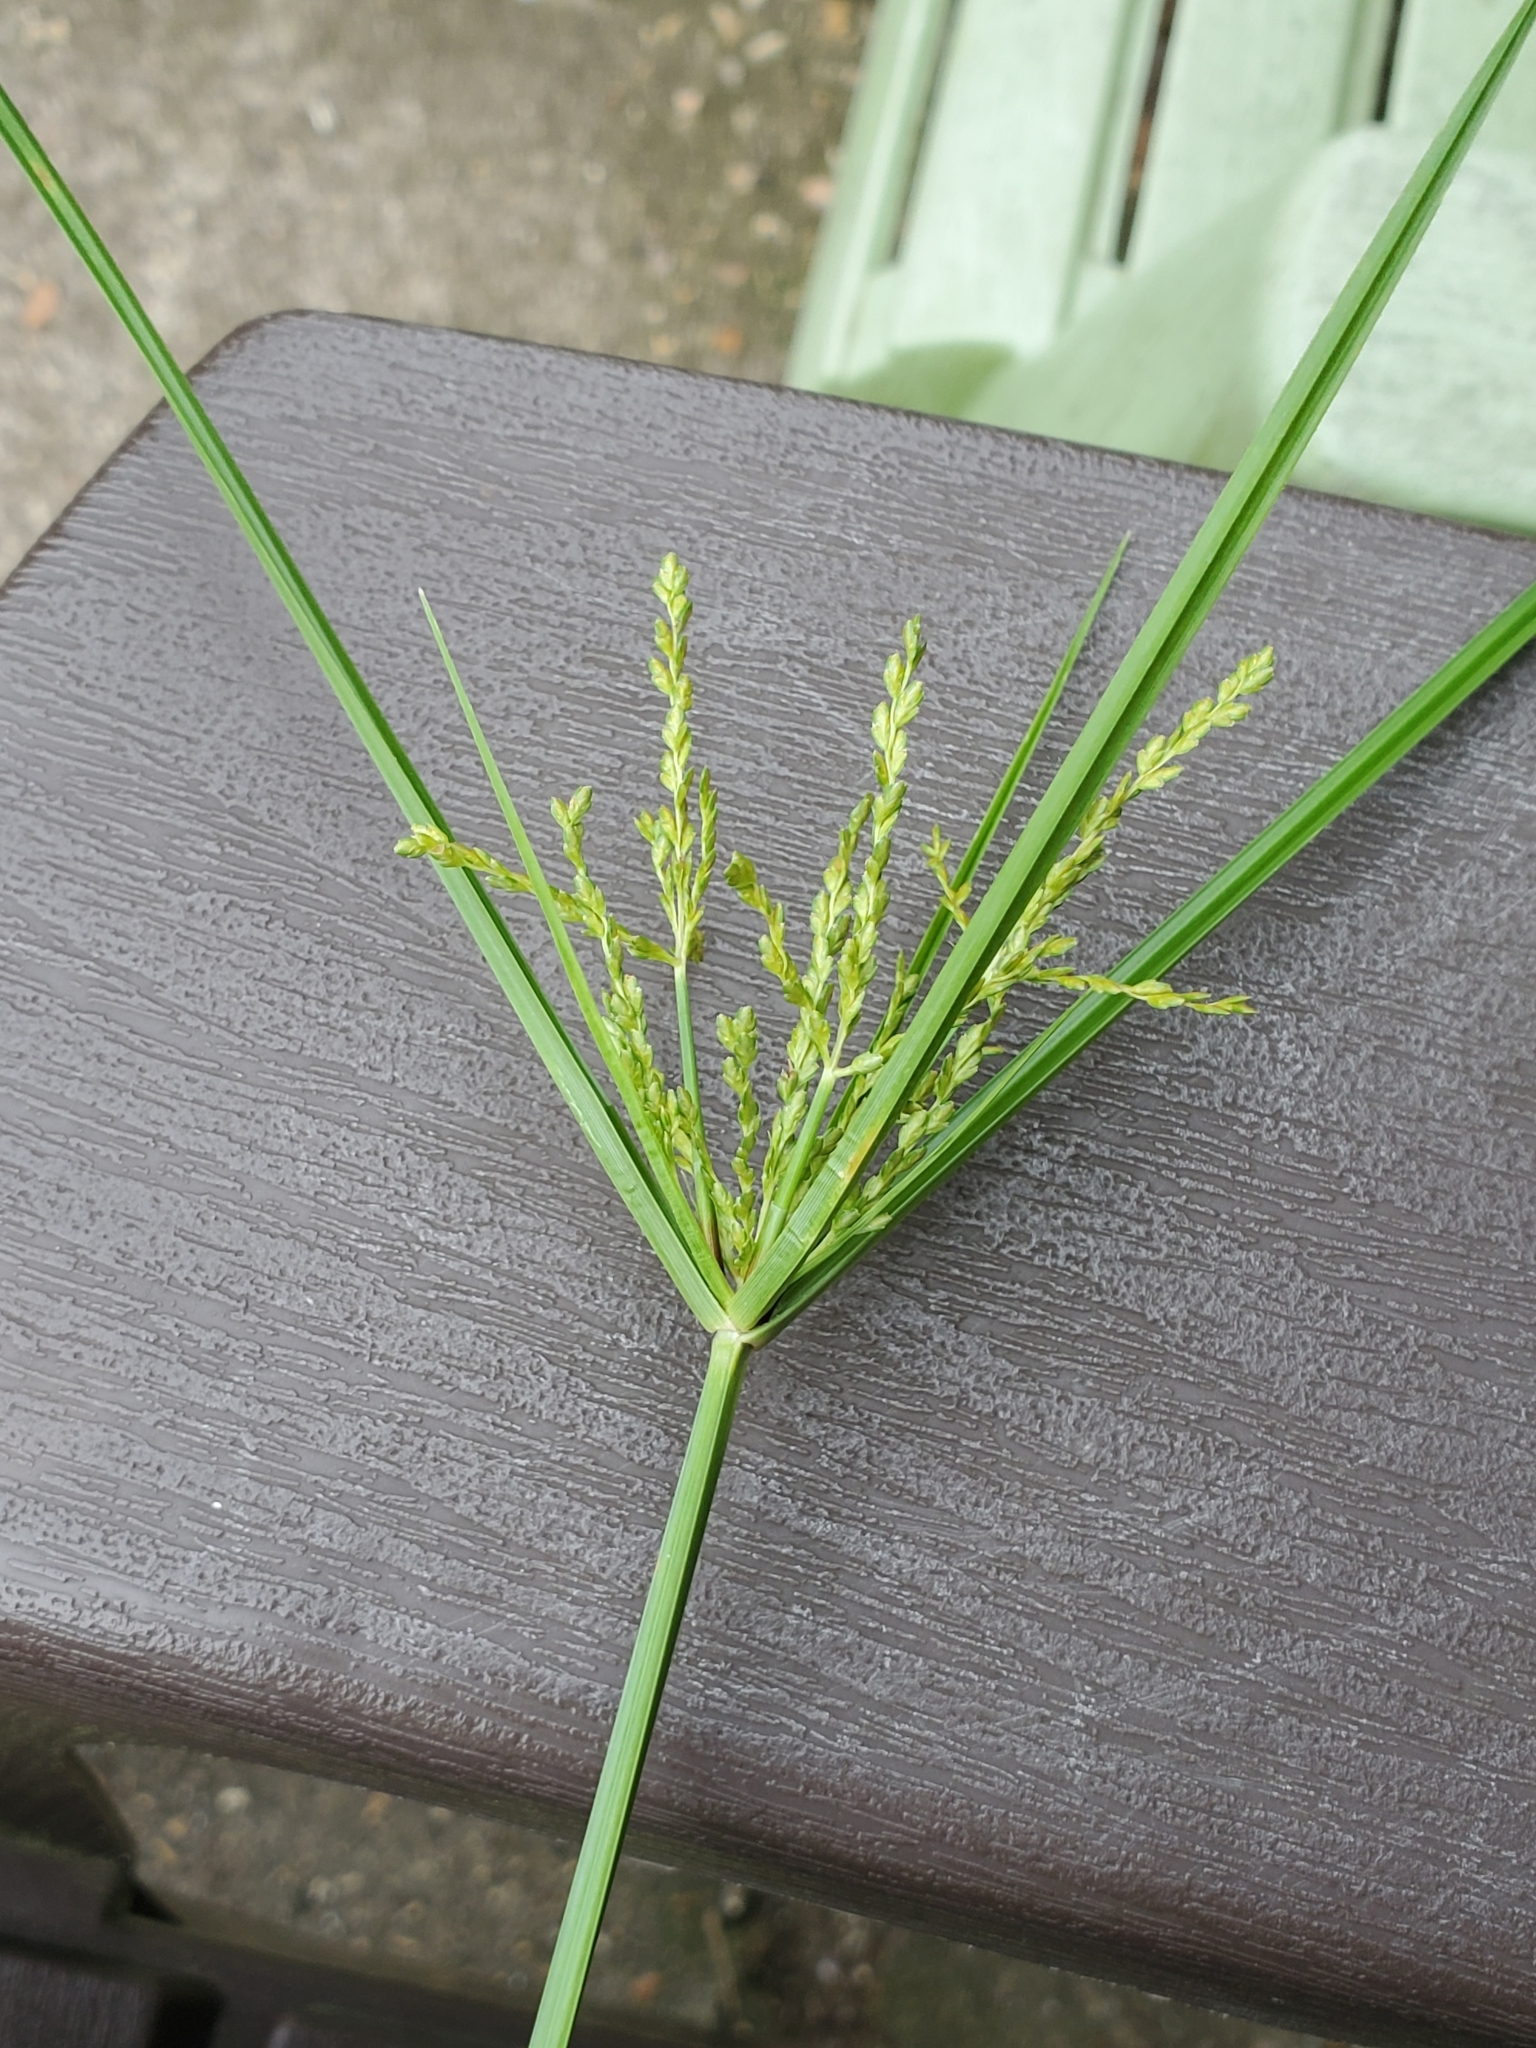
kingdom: Plantae
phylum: Tracheophyta
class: Liliopsida
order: Poales
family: Cyperaceae
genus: Cyperus
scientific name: Cyperus iria
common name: Ricefield flatsedge
